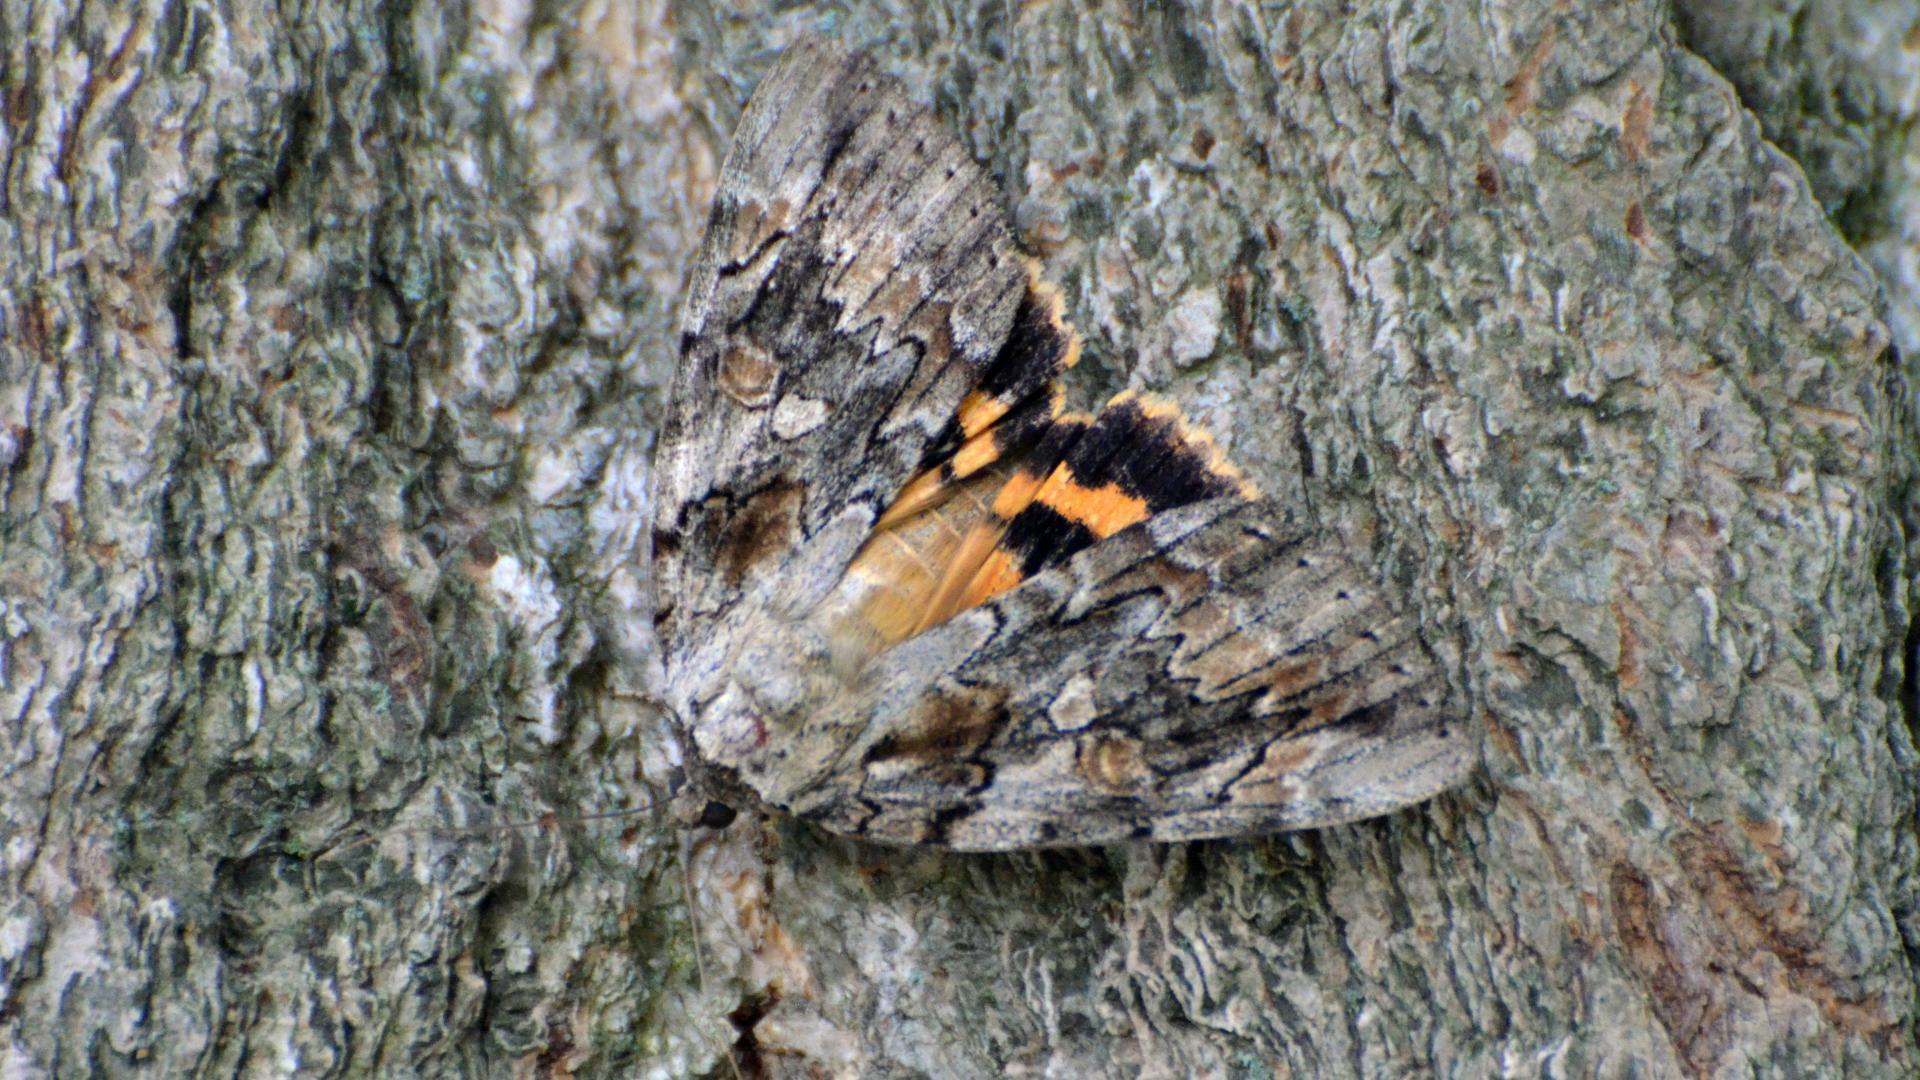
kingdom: Animalia
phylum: Arthropoda
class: Insecta
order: Lepidoptera
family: Erebidae
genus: Catocala
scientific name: Catocala neogama
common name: Bride underwing
